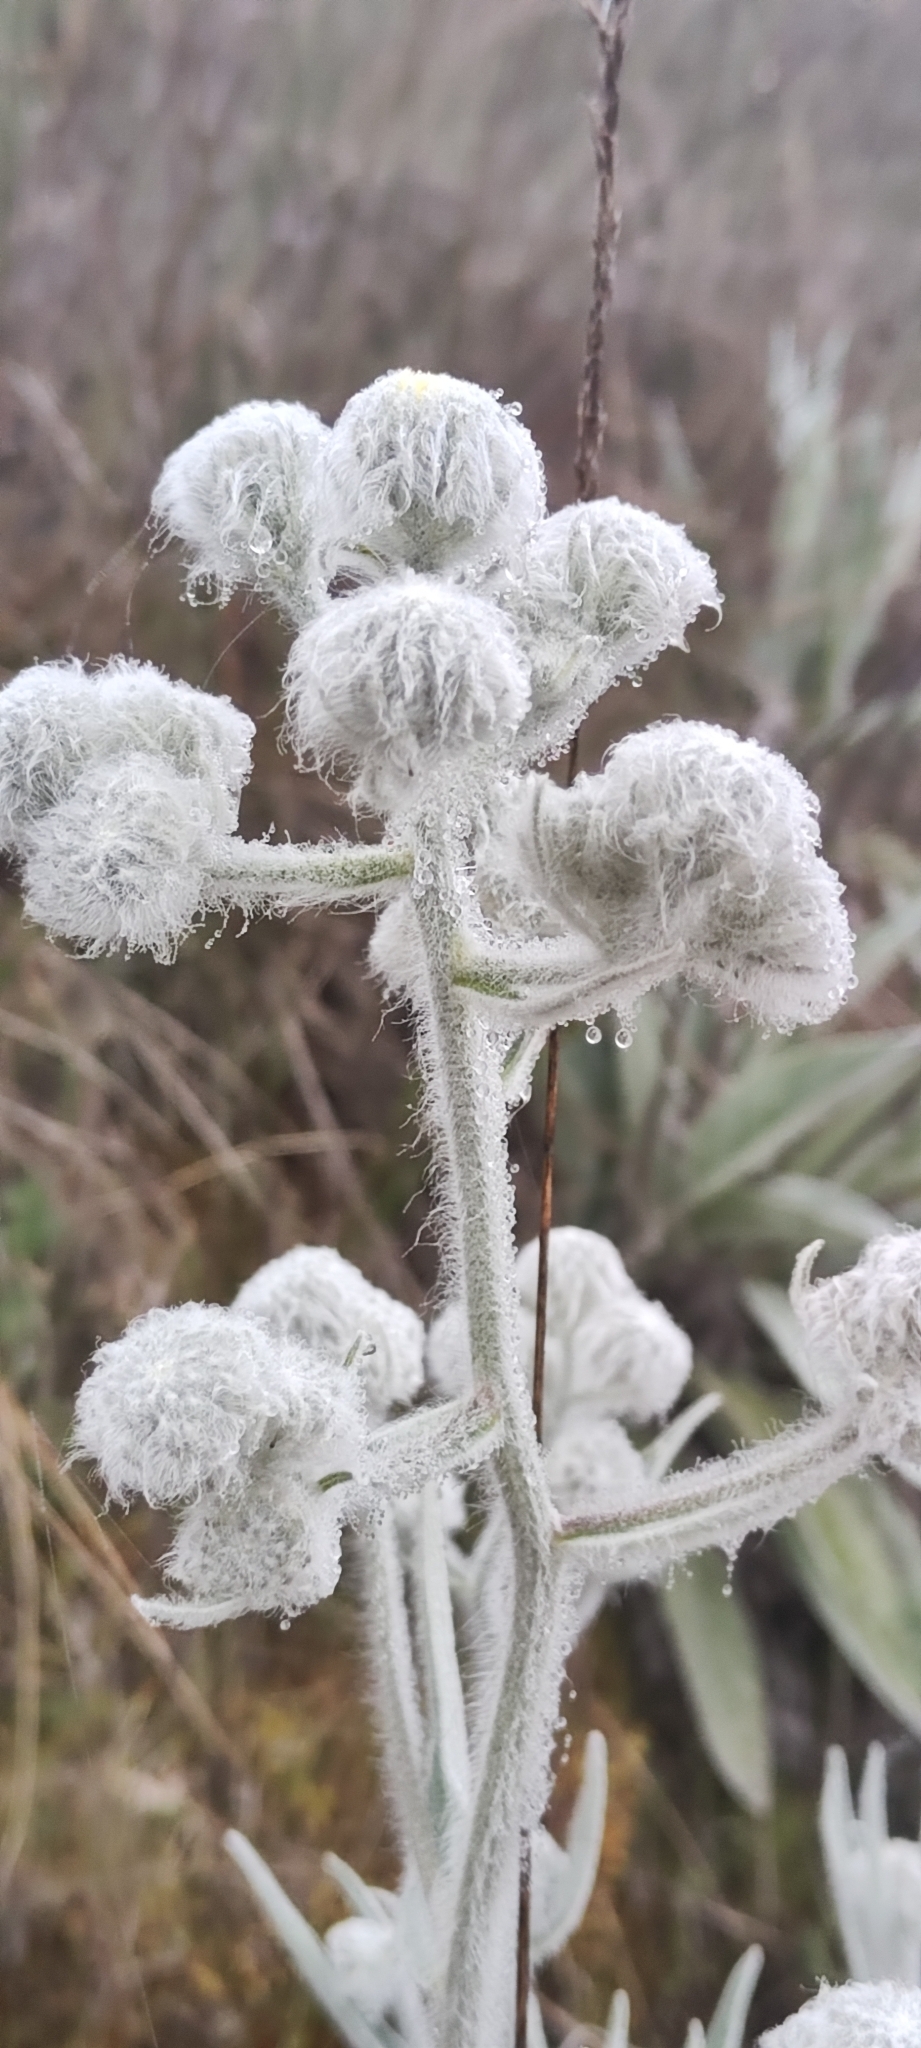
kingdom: Plantae
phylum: Tracheophyta
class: Magnoliopsida
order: Asterales
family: Asteraceae
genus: Hieracium
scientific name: Hieracium mapirense
